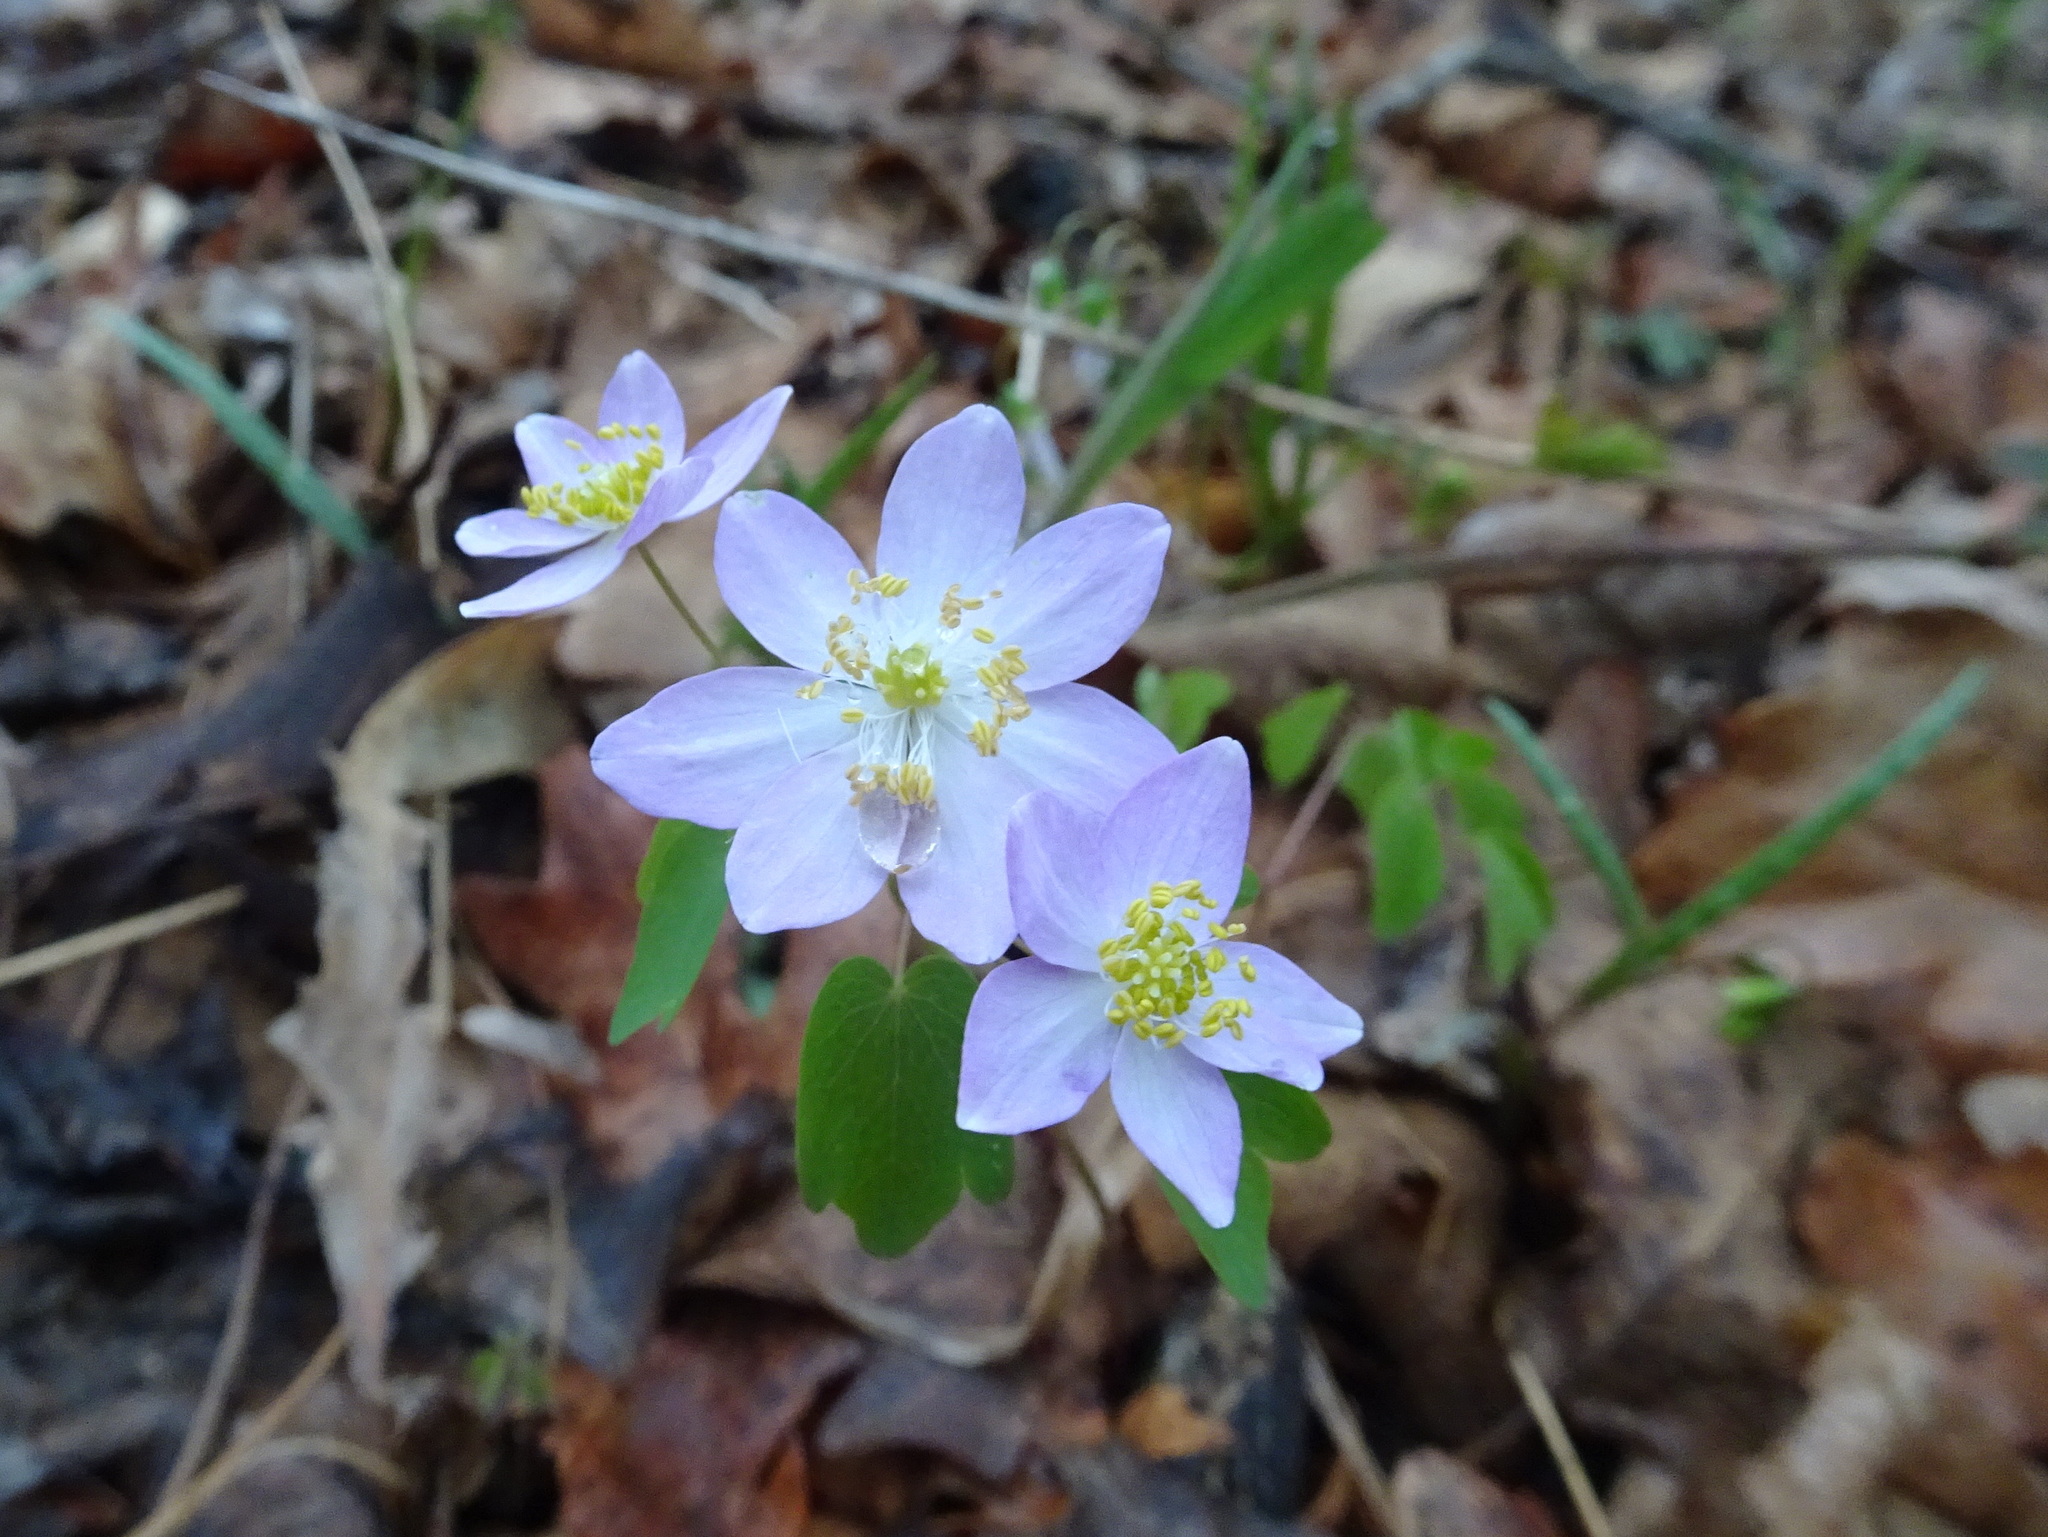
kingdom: Plantae
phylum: Tracheophyta
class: Magnoliopsida
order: Ranunculales
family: Ranunculaceae
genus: Thalictrum
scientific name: Thalictrum thalictroides
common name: Rue-anemone
